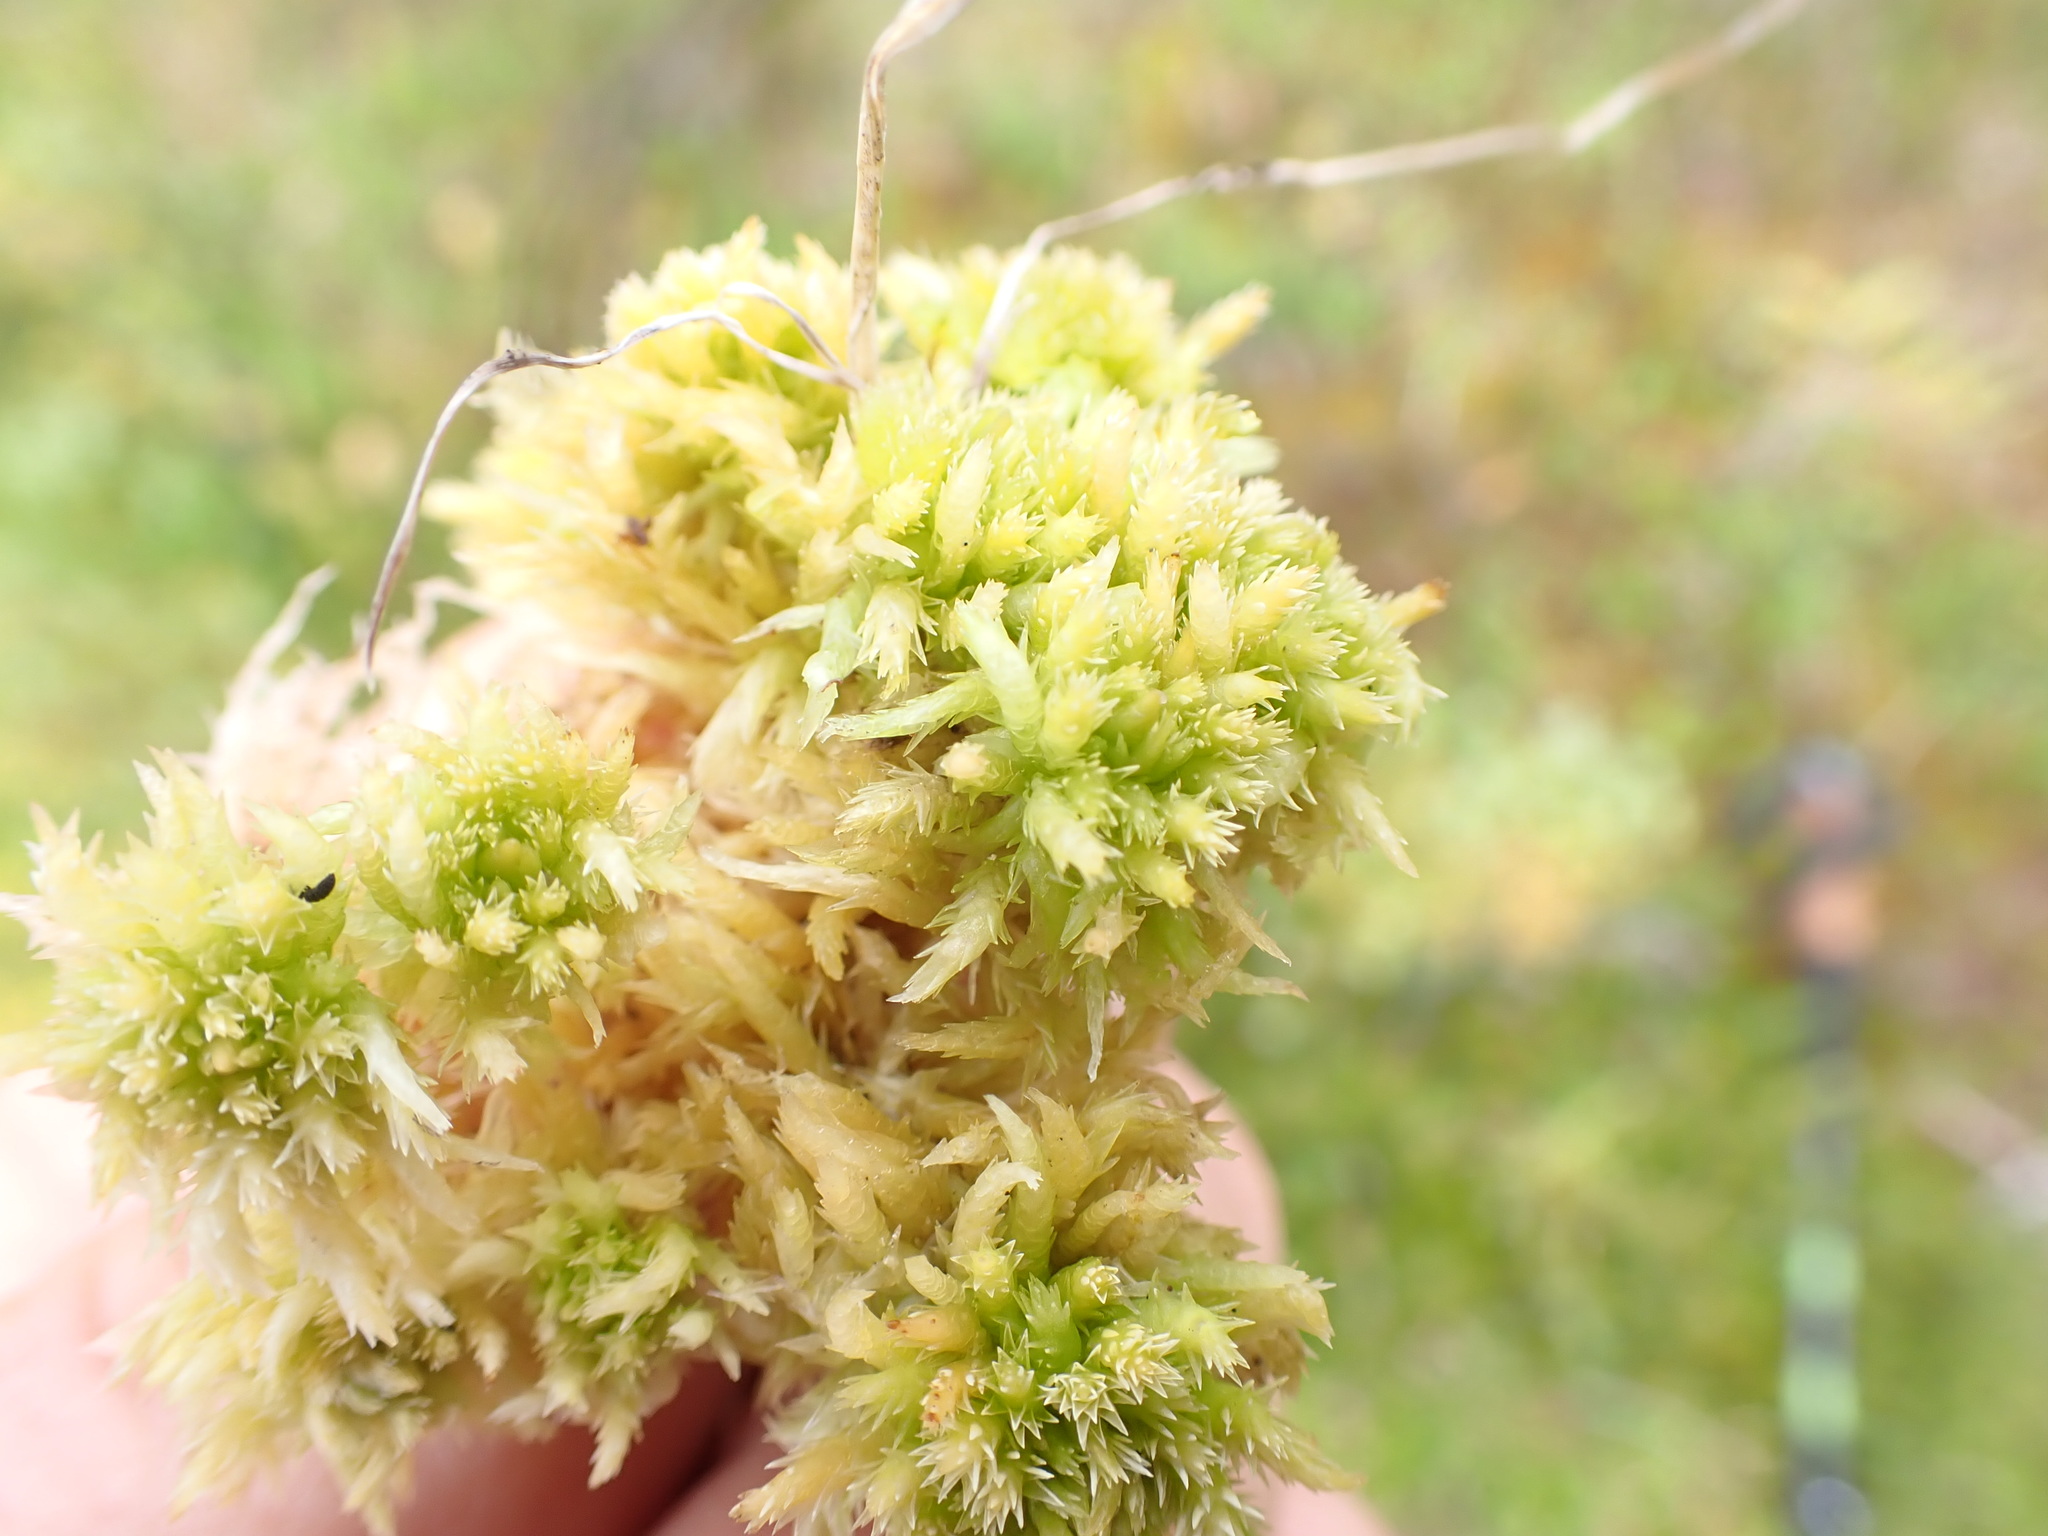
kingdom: Plantae
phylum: Bryophyta
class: Sphagnopsida
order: Sphagnales
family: Sphagnaceae
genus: Sphagnum
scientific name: Sphagnum squarrosum
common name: Shaggy peat moss
